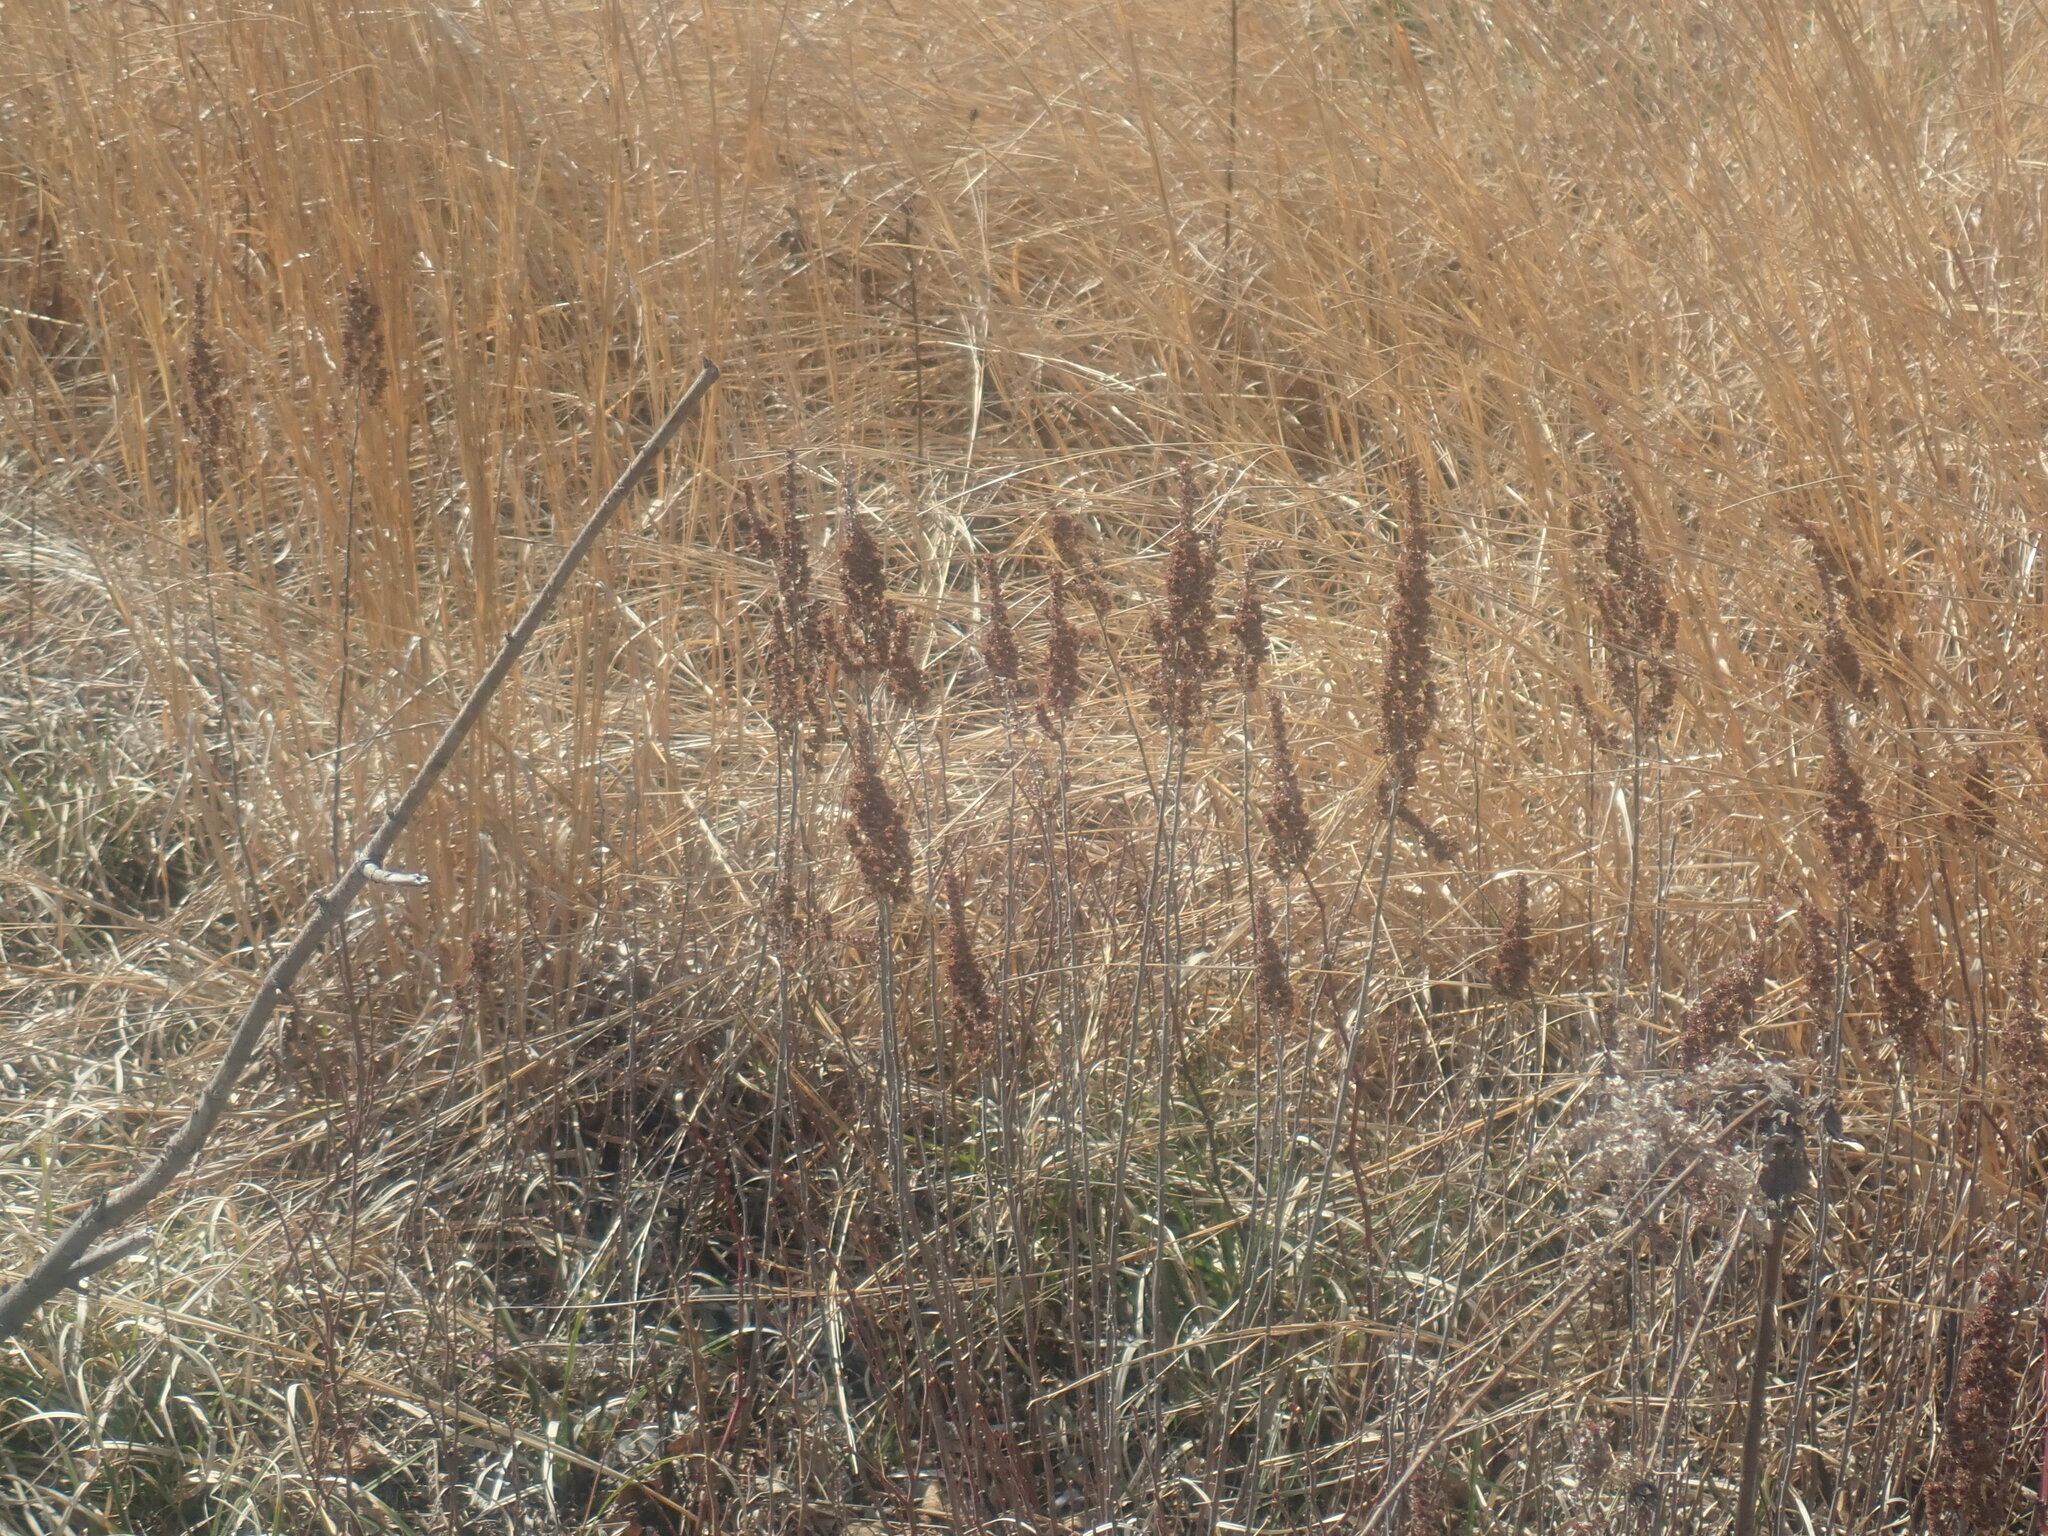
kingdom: Plantae
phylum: Tracheophyta
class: Magnoliopsida
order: Rosales
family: Rosaceae
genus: Spiraea
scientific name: Spiraea tomentosa
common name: Hardhack
